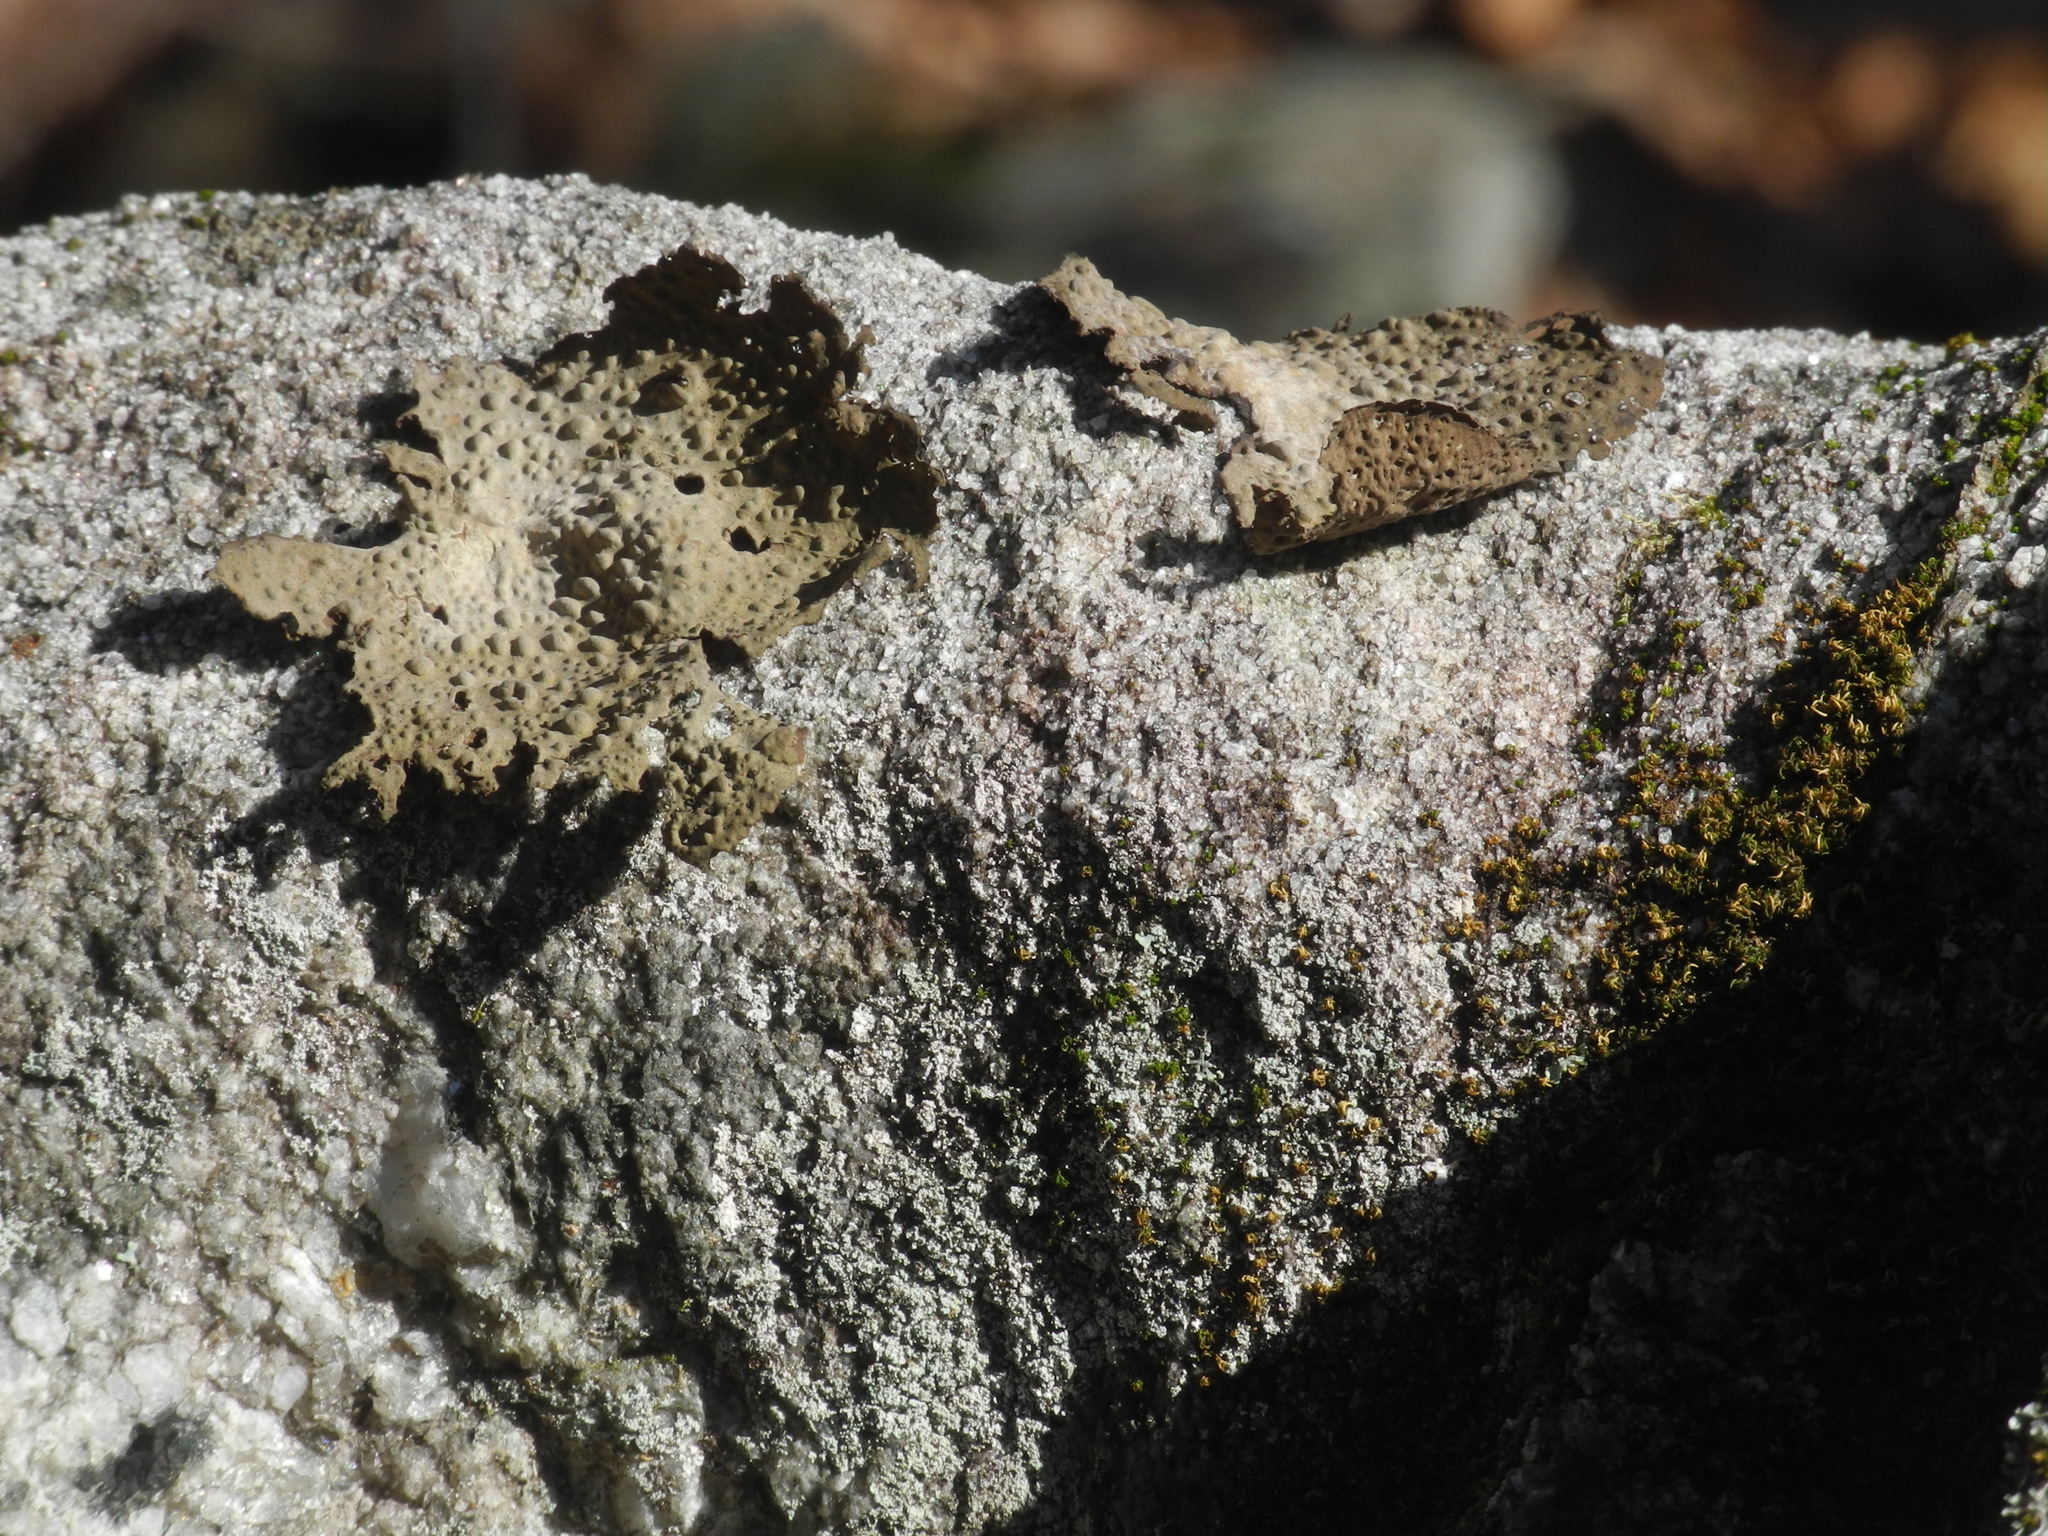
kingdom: Fungi
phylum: Ascomycota
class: Lecanoromycetes
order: Umbilicariales
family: Umbilicariaceae
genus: Lasallia
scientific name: Lasallia papulosa
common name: Common toadskin lichen
